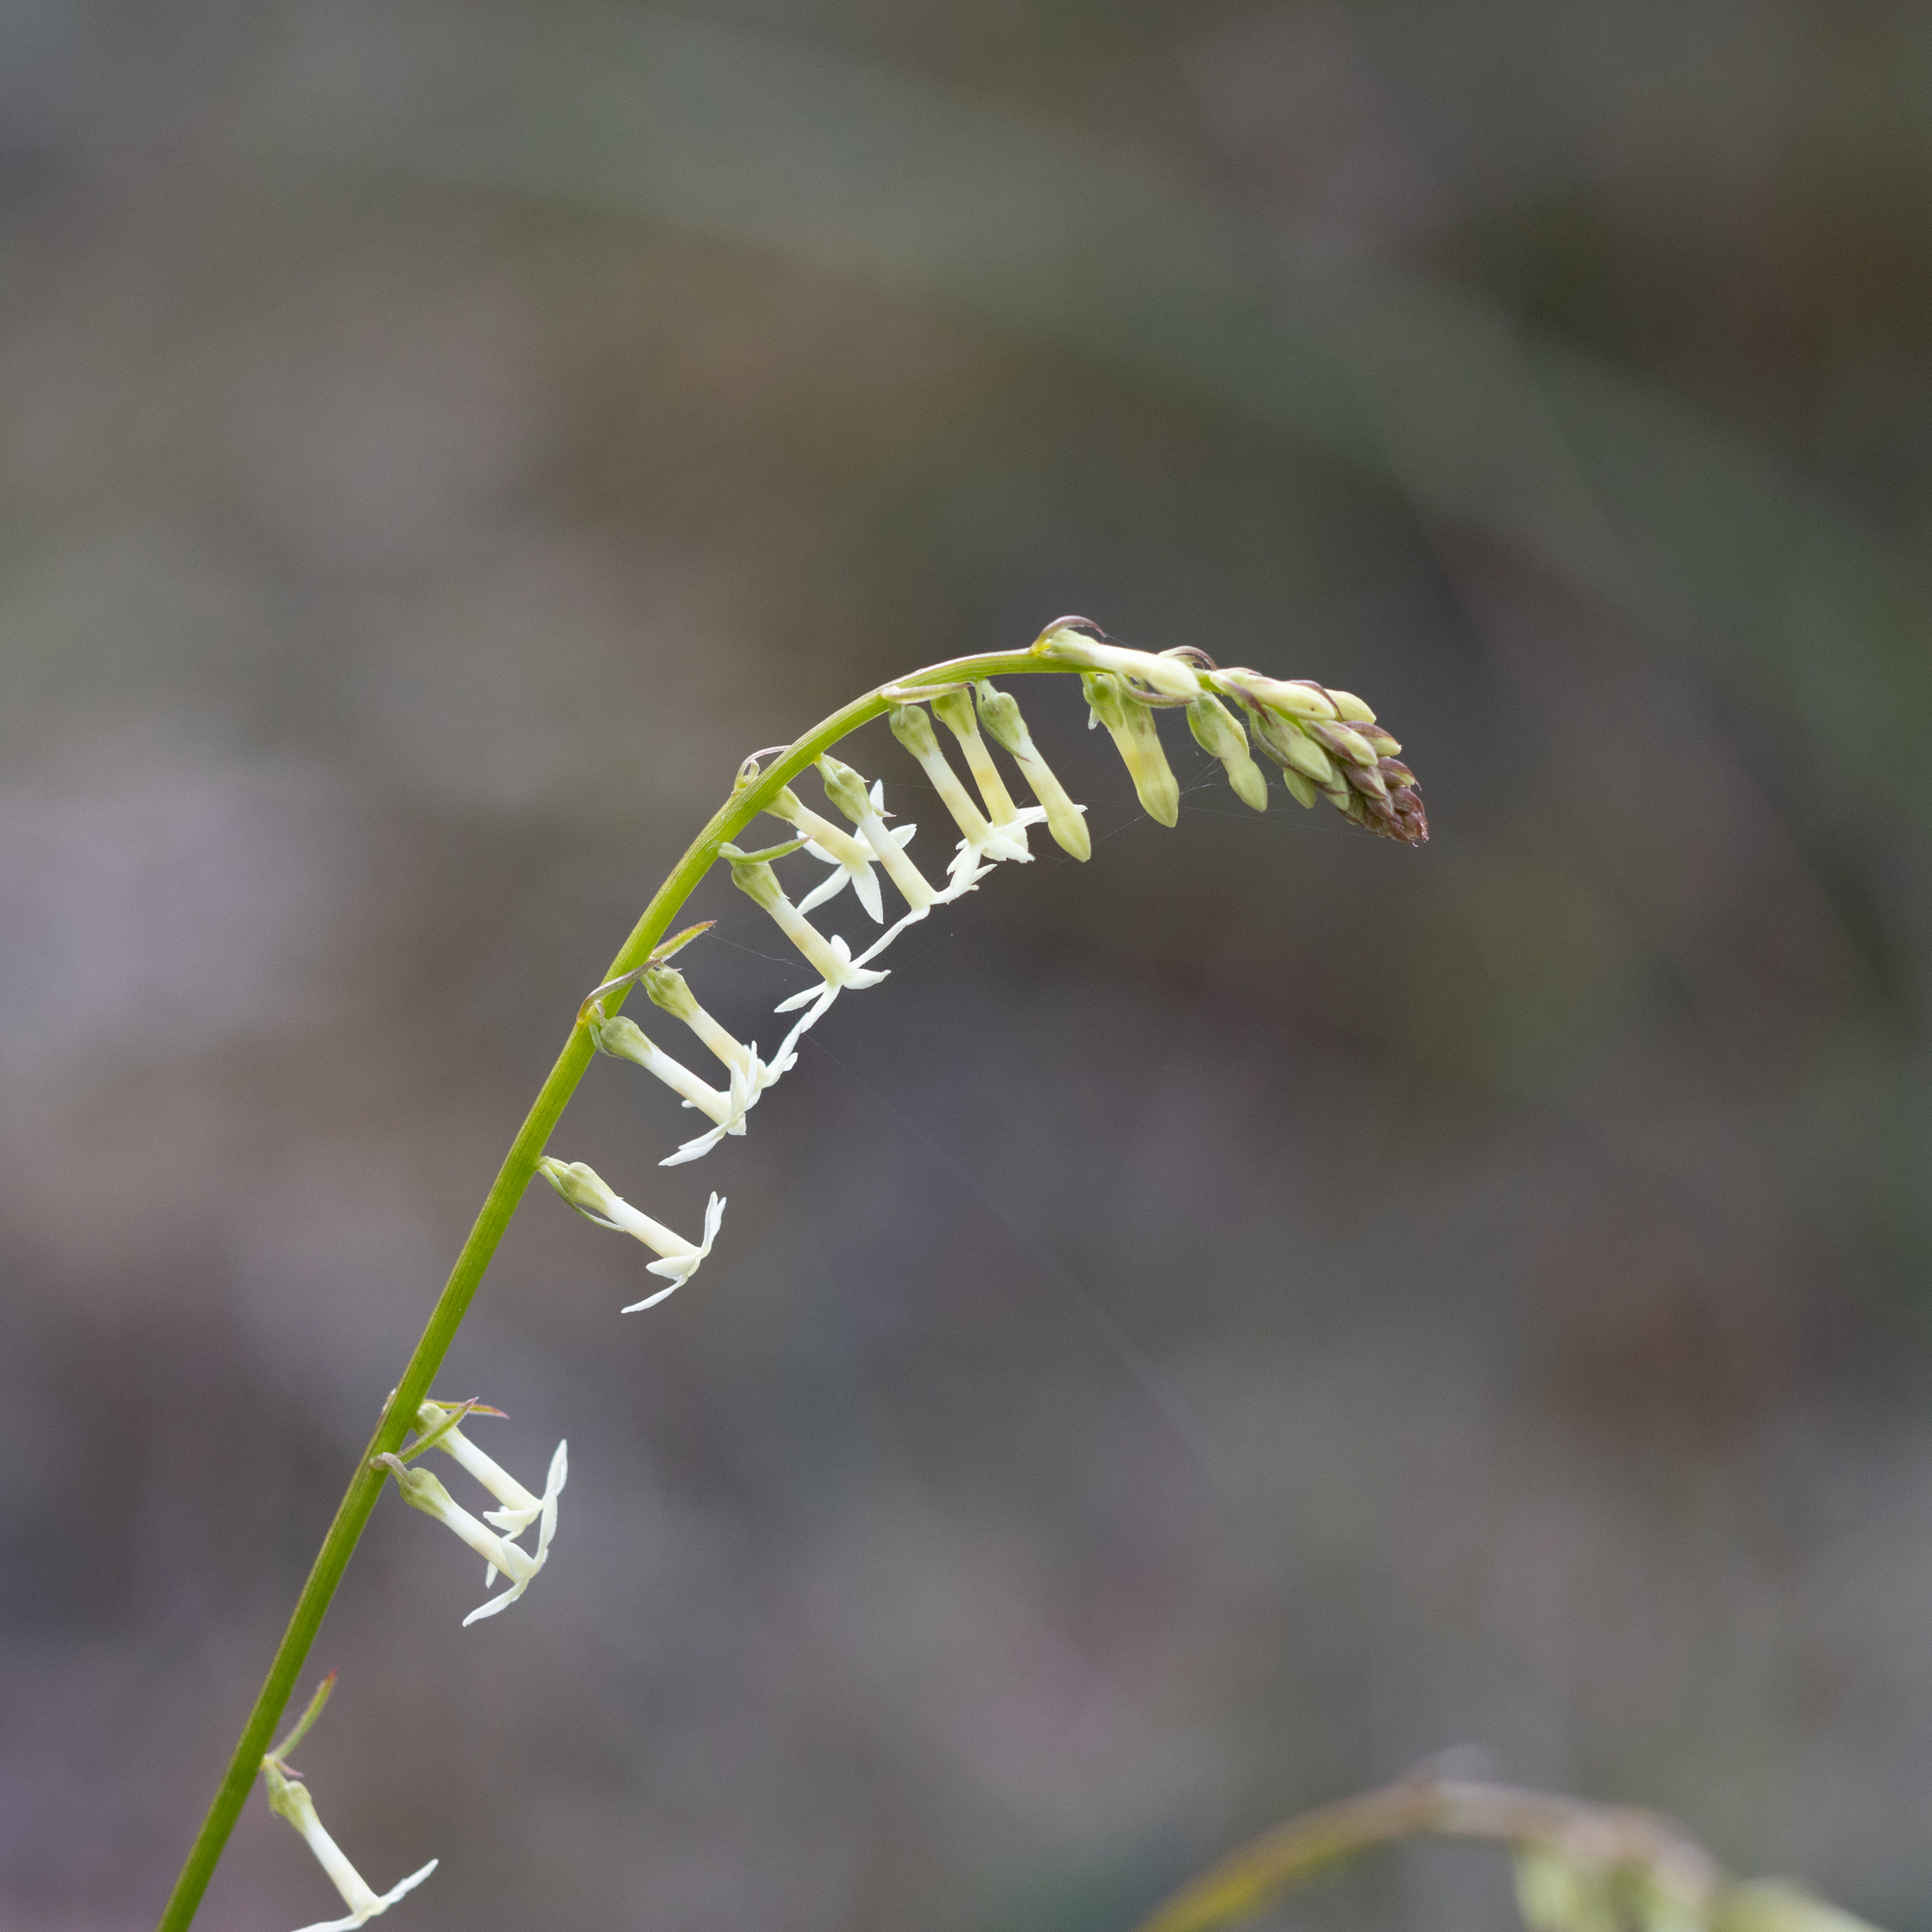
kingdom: Plantae
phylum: Tracheophyta
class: Magnoliopsida
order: Celastrales
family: Celastraceae
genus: Stackhousia
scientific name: Stackhousia monogyna
